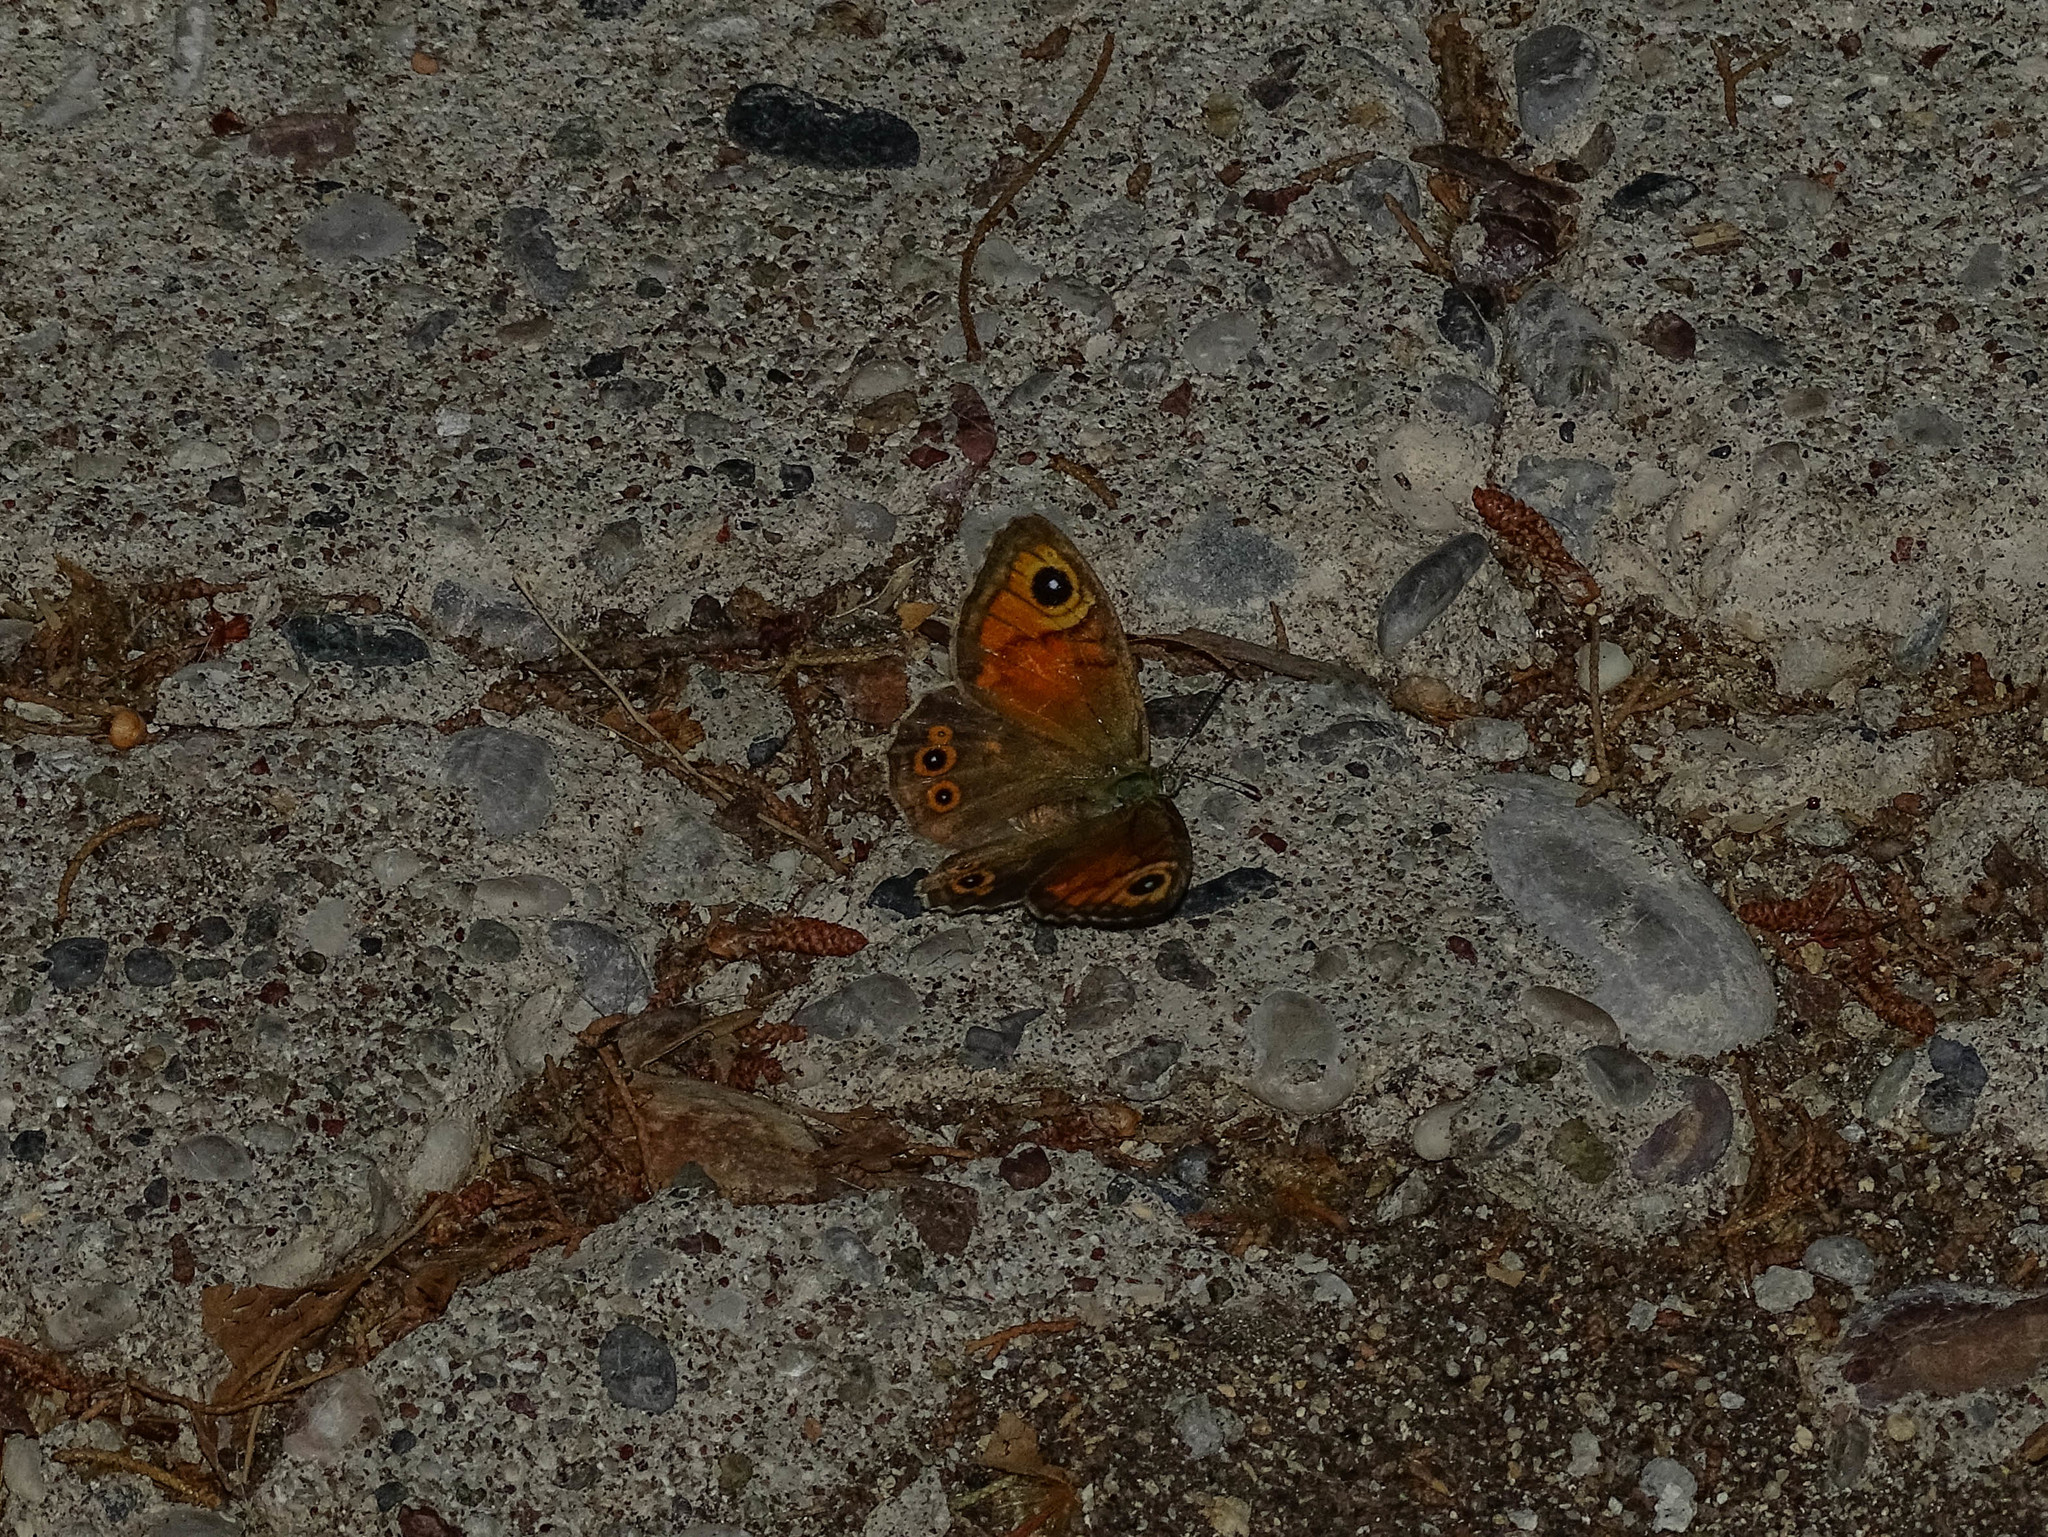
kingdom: Animalia
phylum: Arthropoda
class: Insecta
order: Lepidoptera
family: Nymphalidae
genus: Pararge
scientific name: Pararge Lasiommata maera
